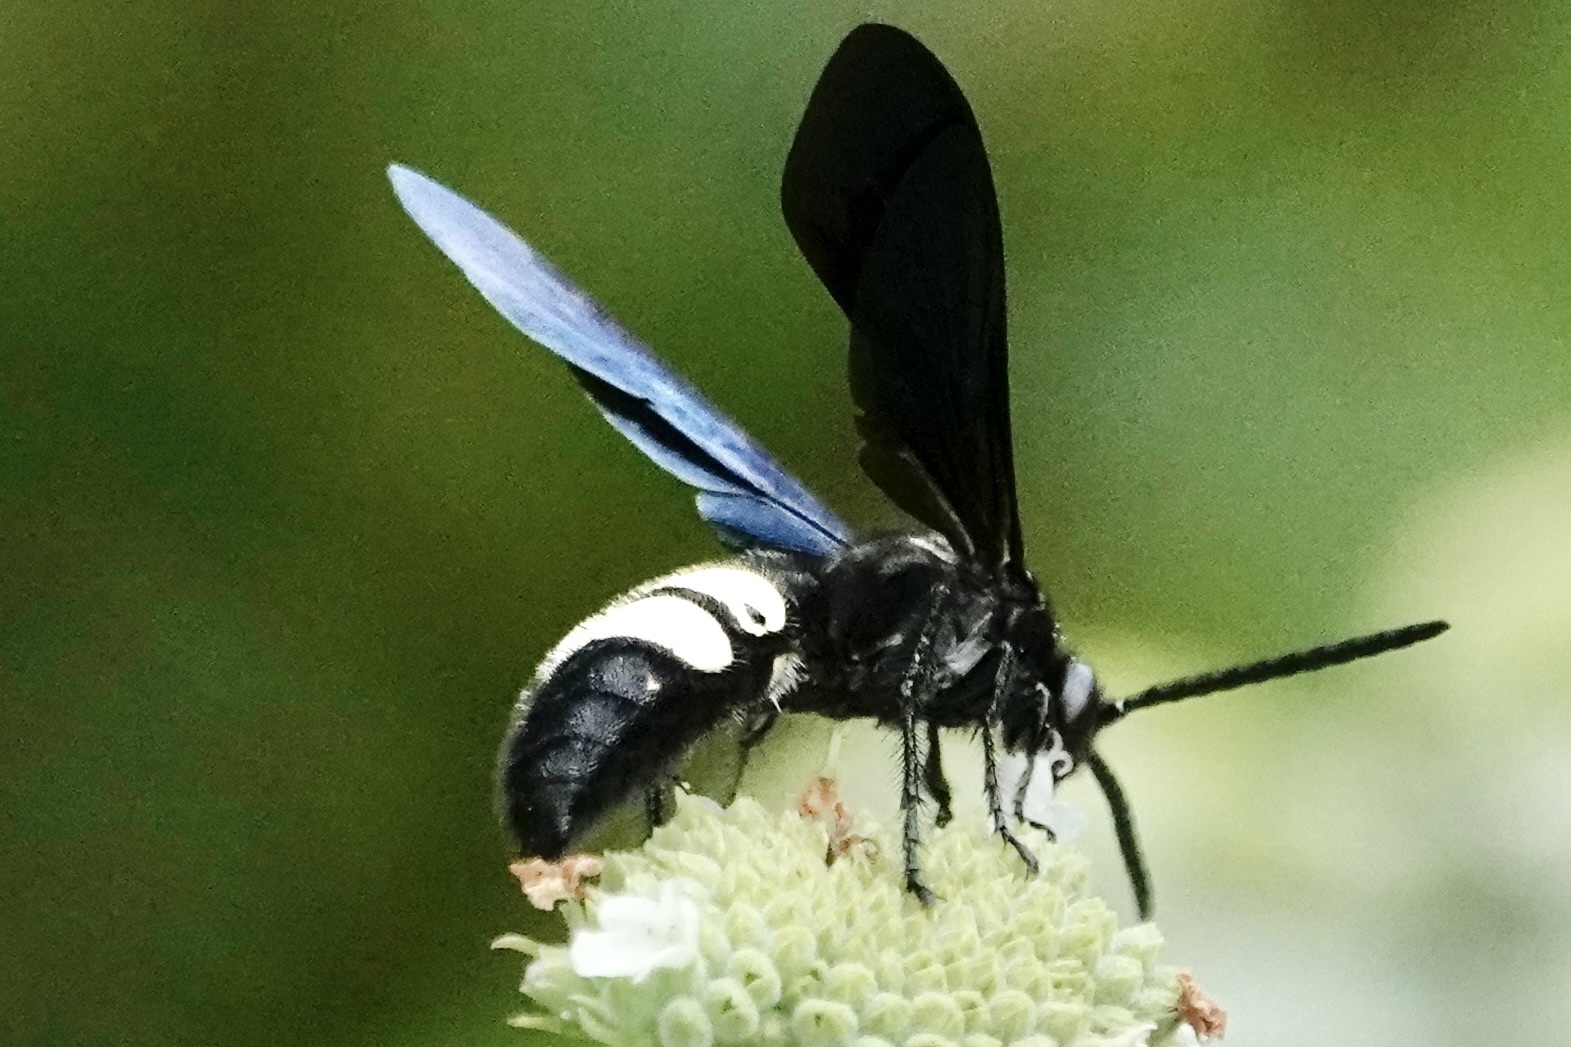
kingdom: Animalia
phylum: Arthropoda
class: Insecta
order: Hymenoptera
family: Scoliidae
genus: Scolia
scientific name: Scolia bicincta
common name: Double-banded scoliid wasp
